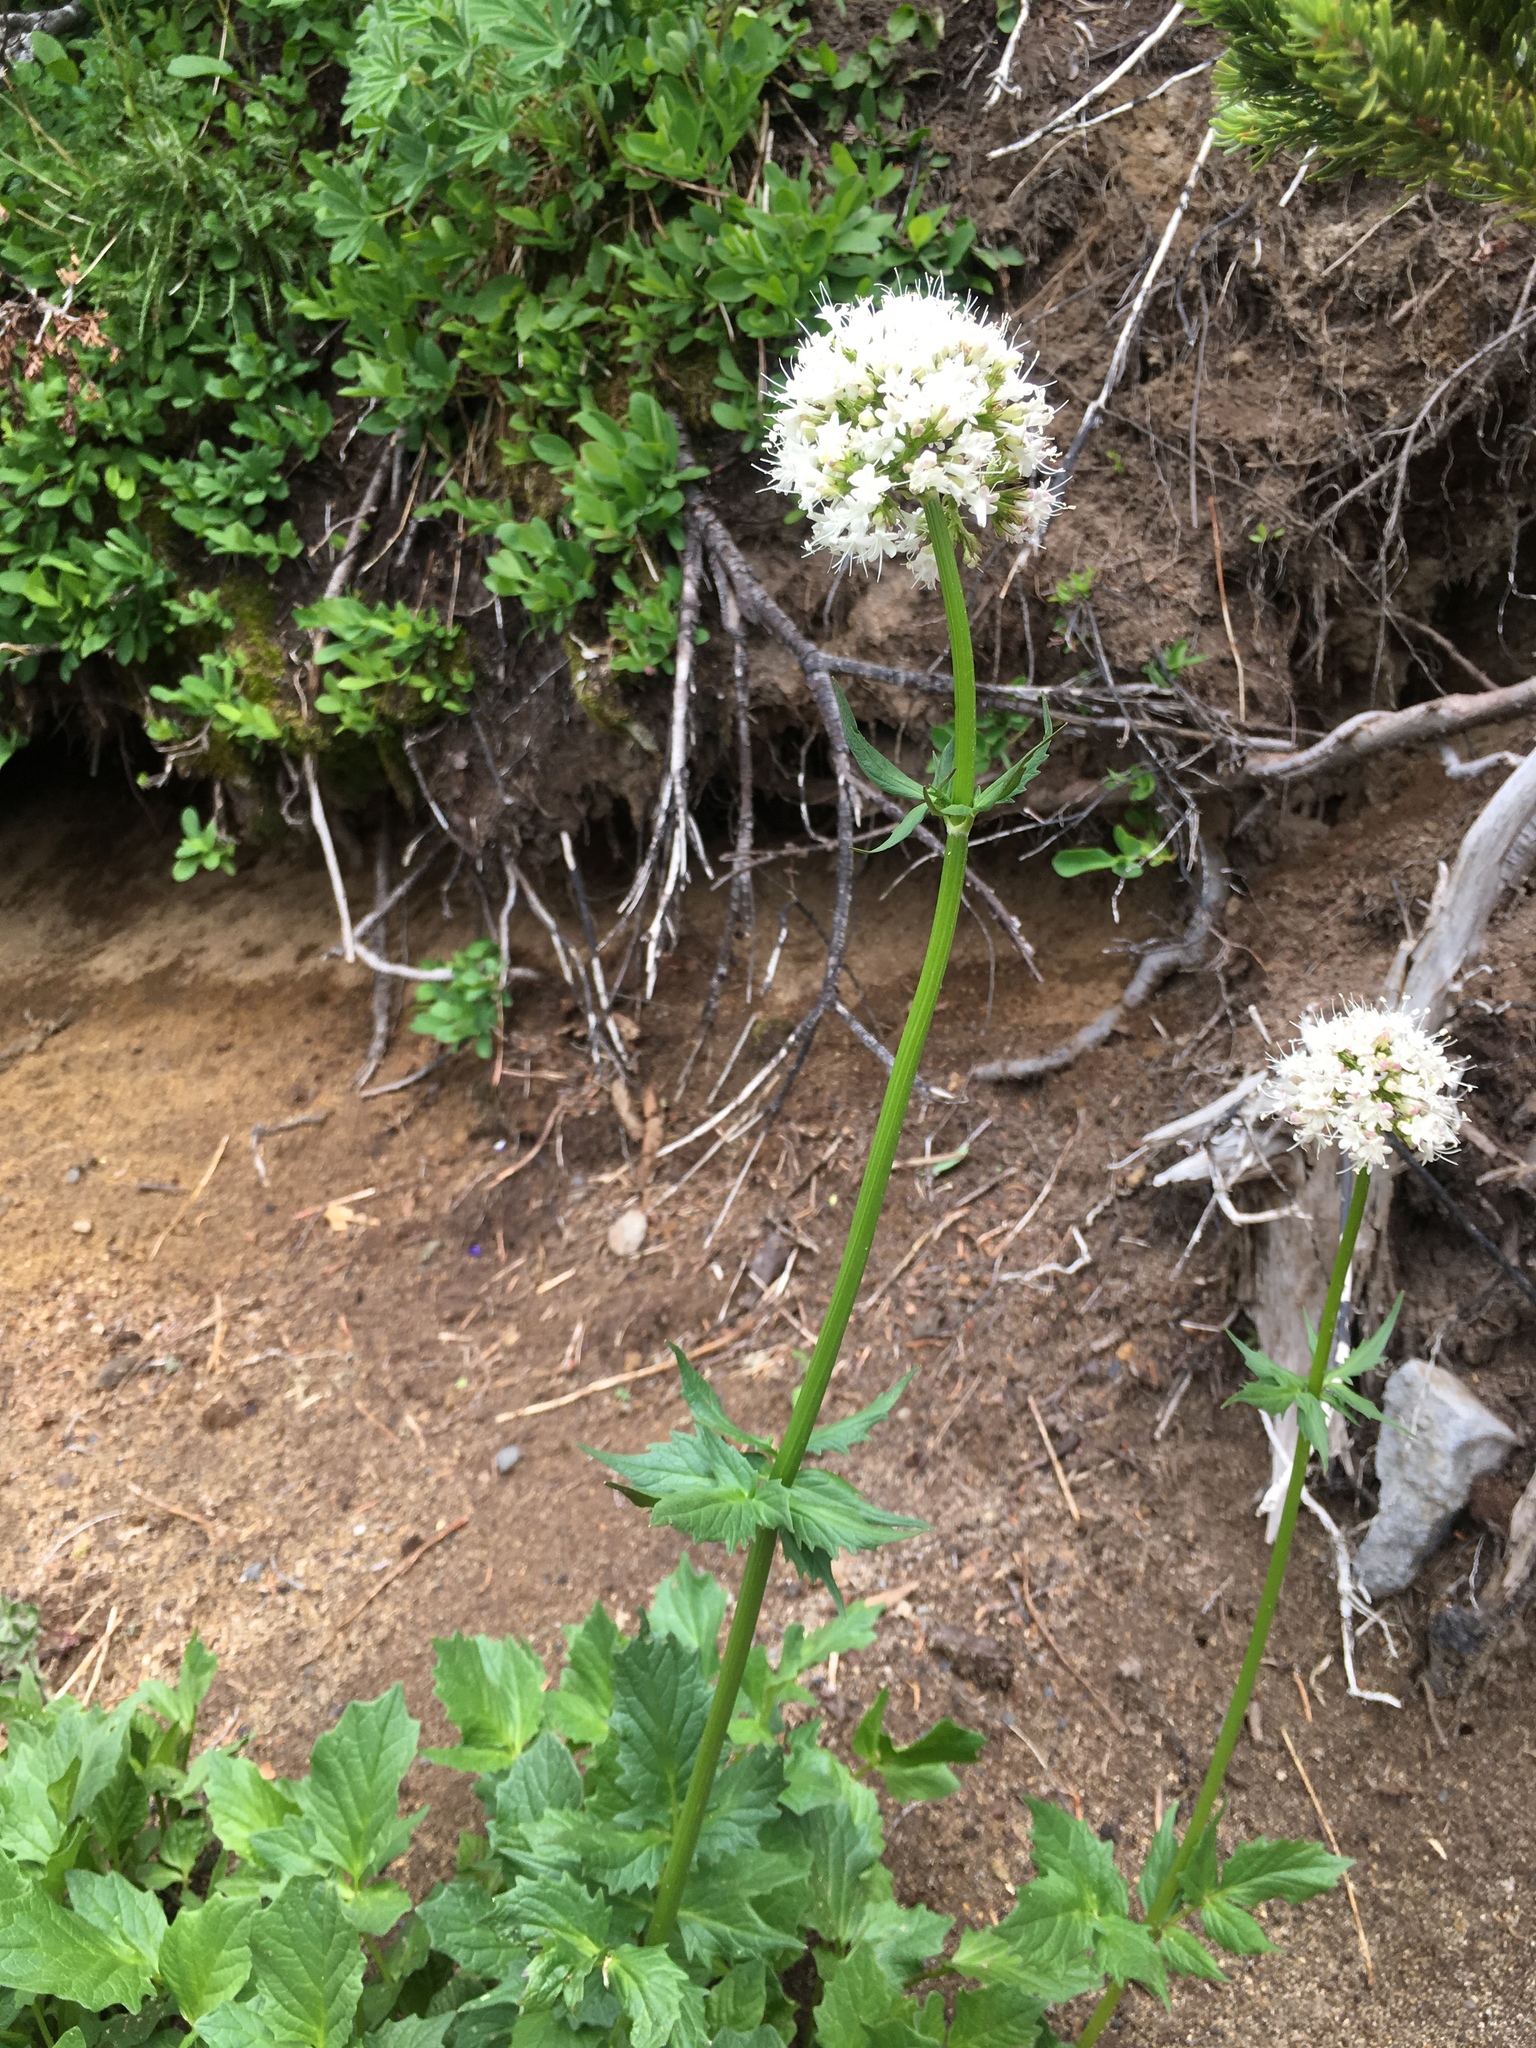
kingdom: Plantae
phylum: Tracheophyta
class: Magnoliopsida
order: Dipsacales
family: Caprifoliaceae
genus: Valeriana
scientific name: Valeriana sitchensis
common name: Pacific valerian
